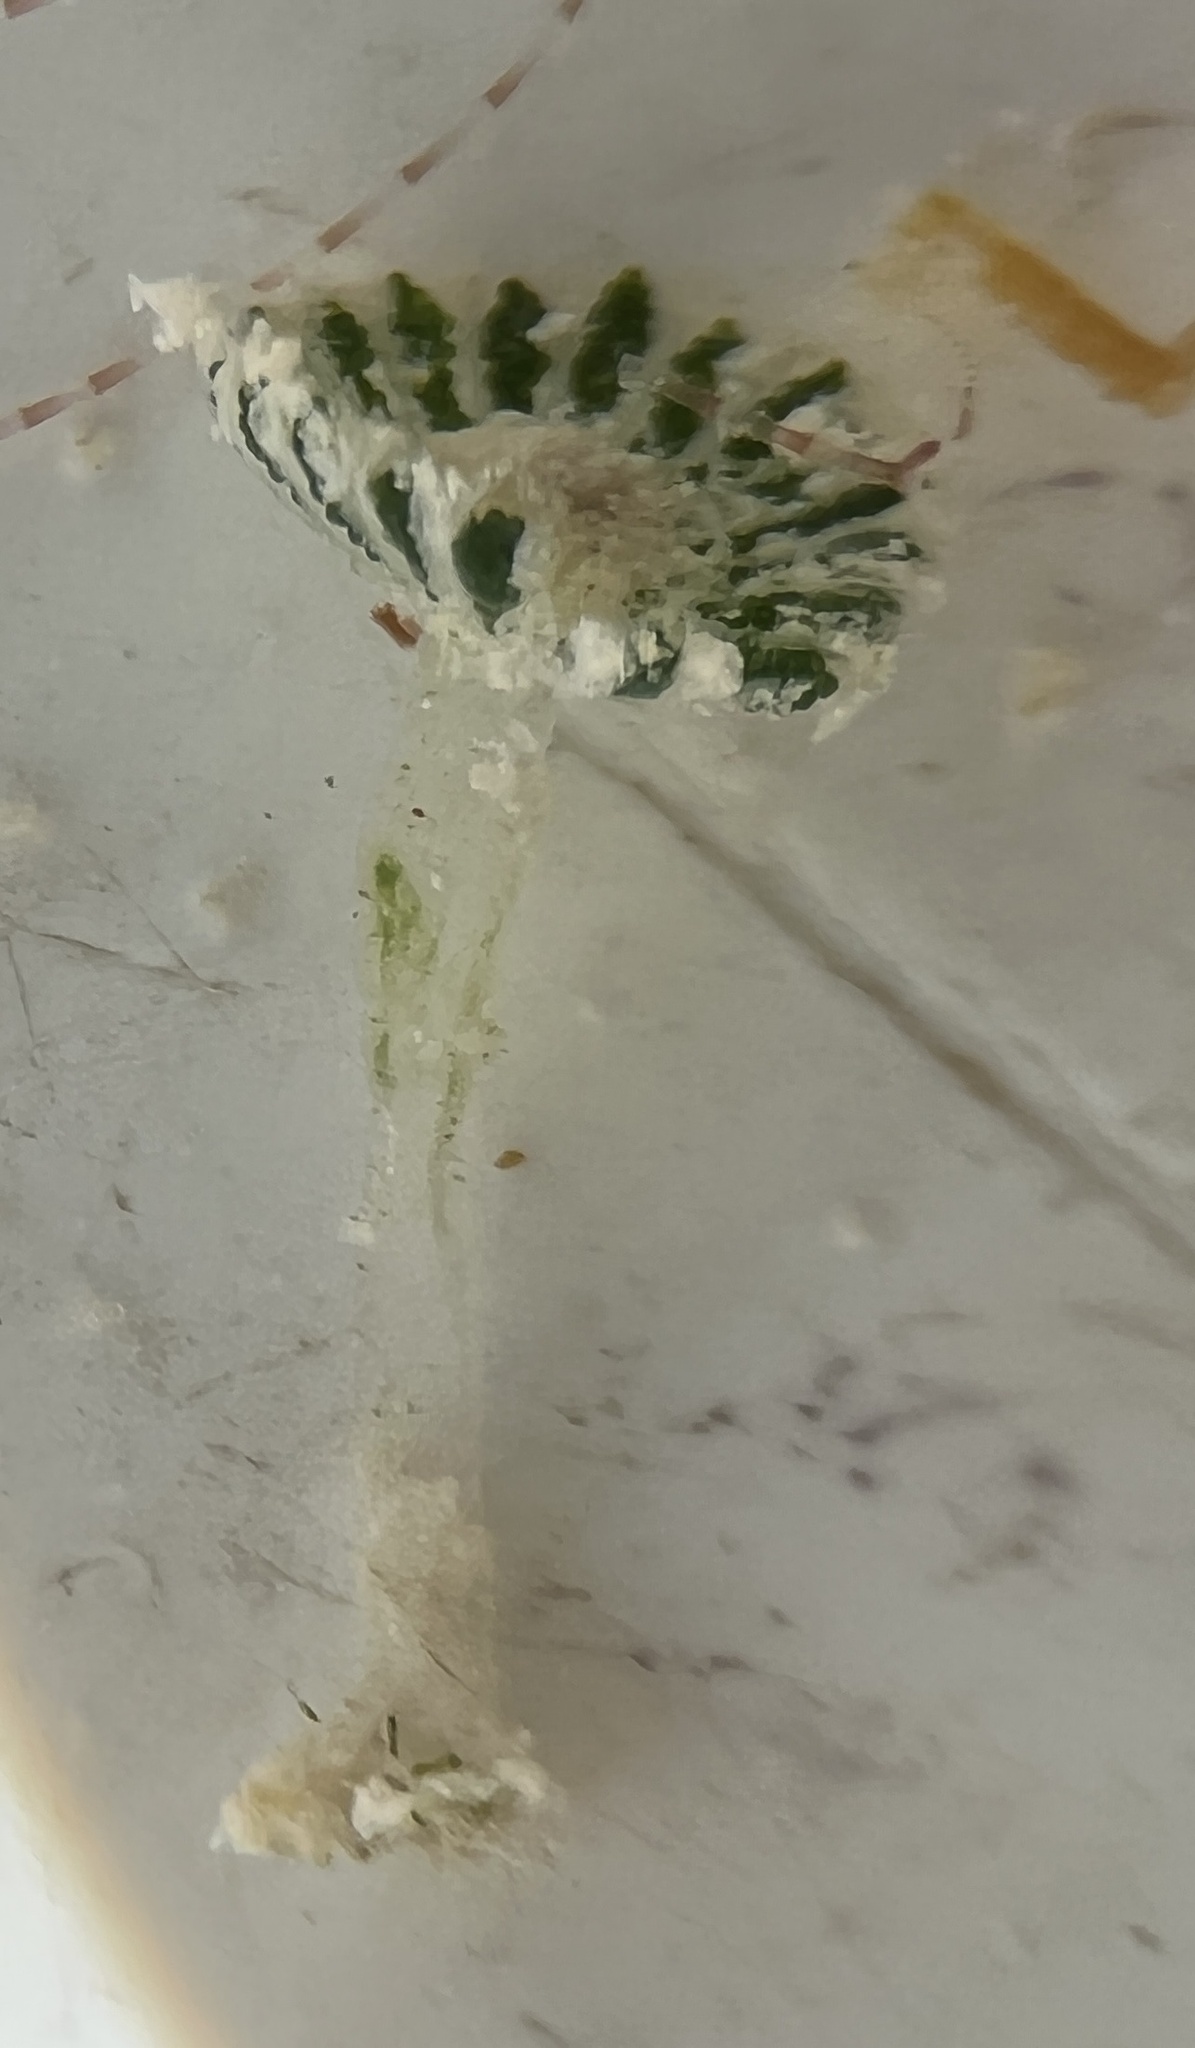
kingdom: Plantae
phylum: Chlorophyta
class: Ulvophyceae
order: Dasycladales
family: Polyphysaceae
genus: Chalmasia
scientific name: Chalmasia antillana
